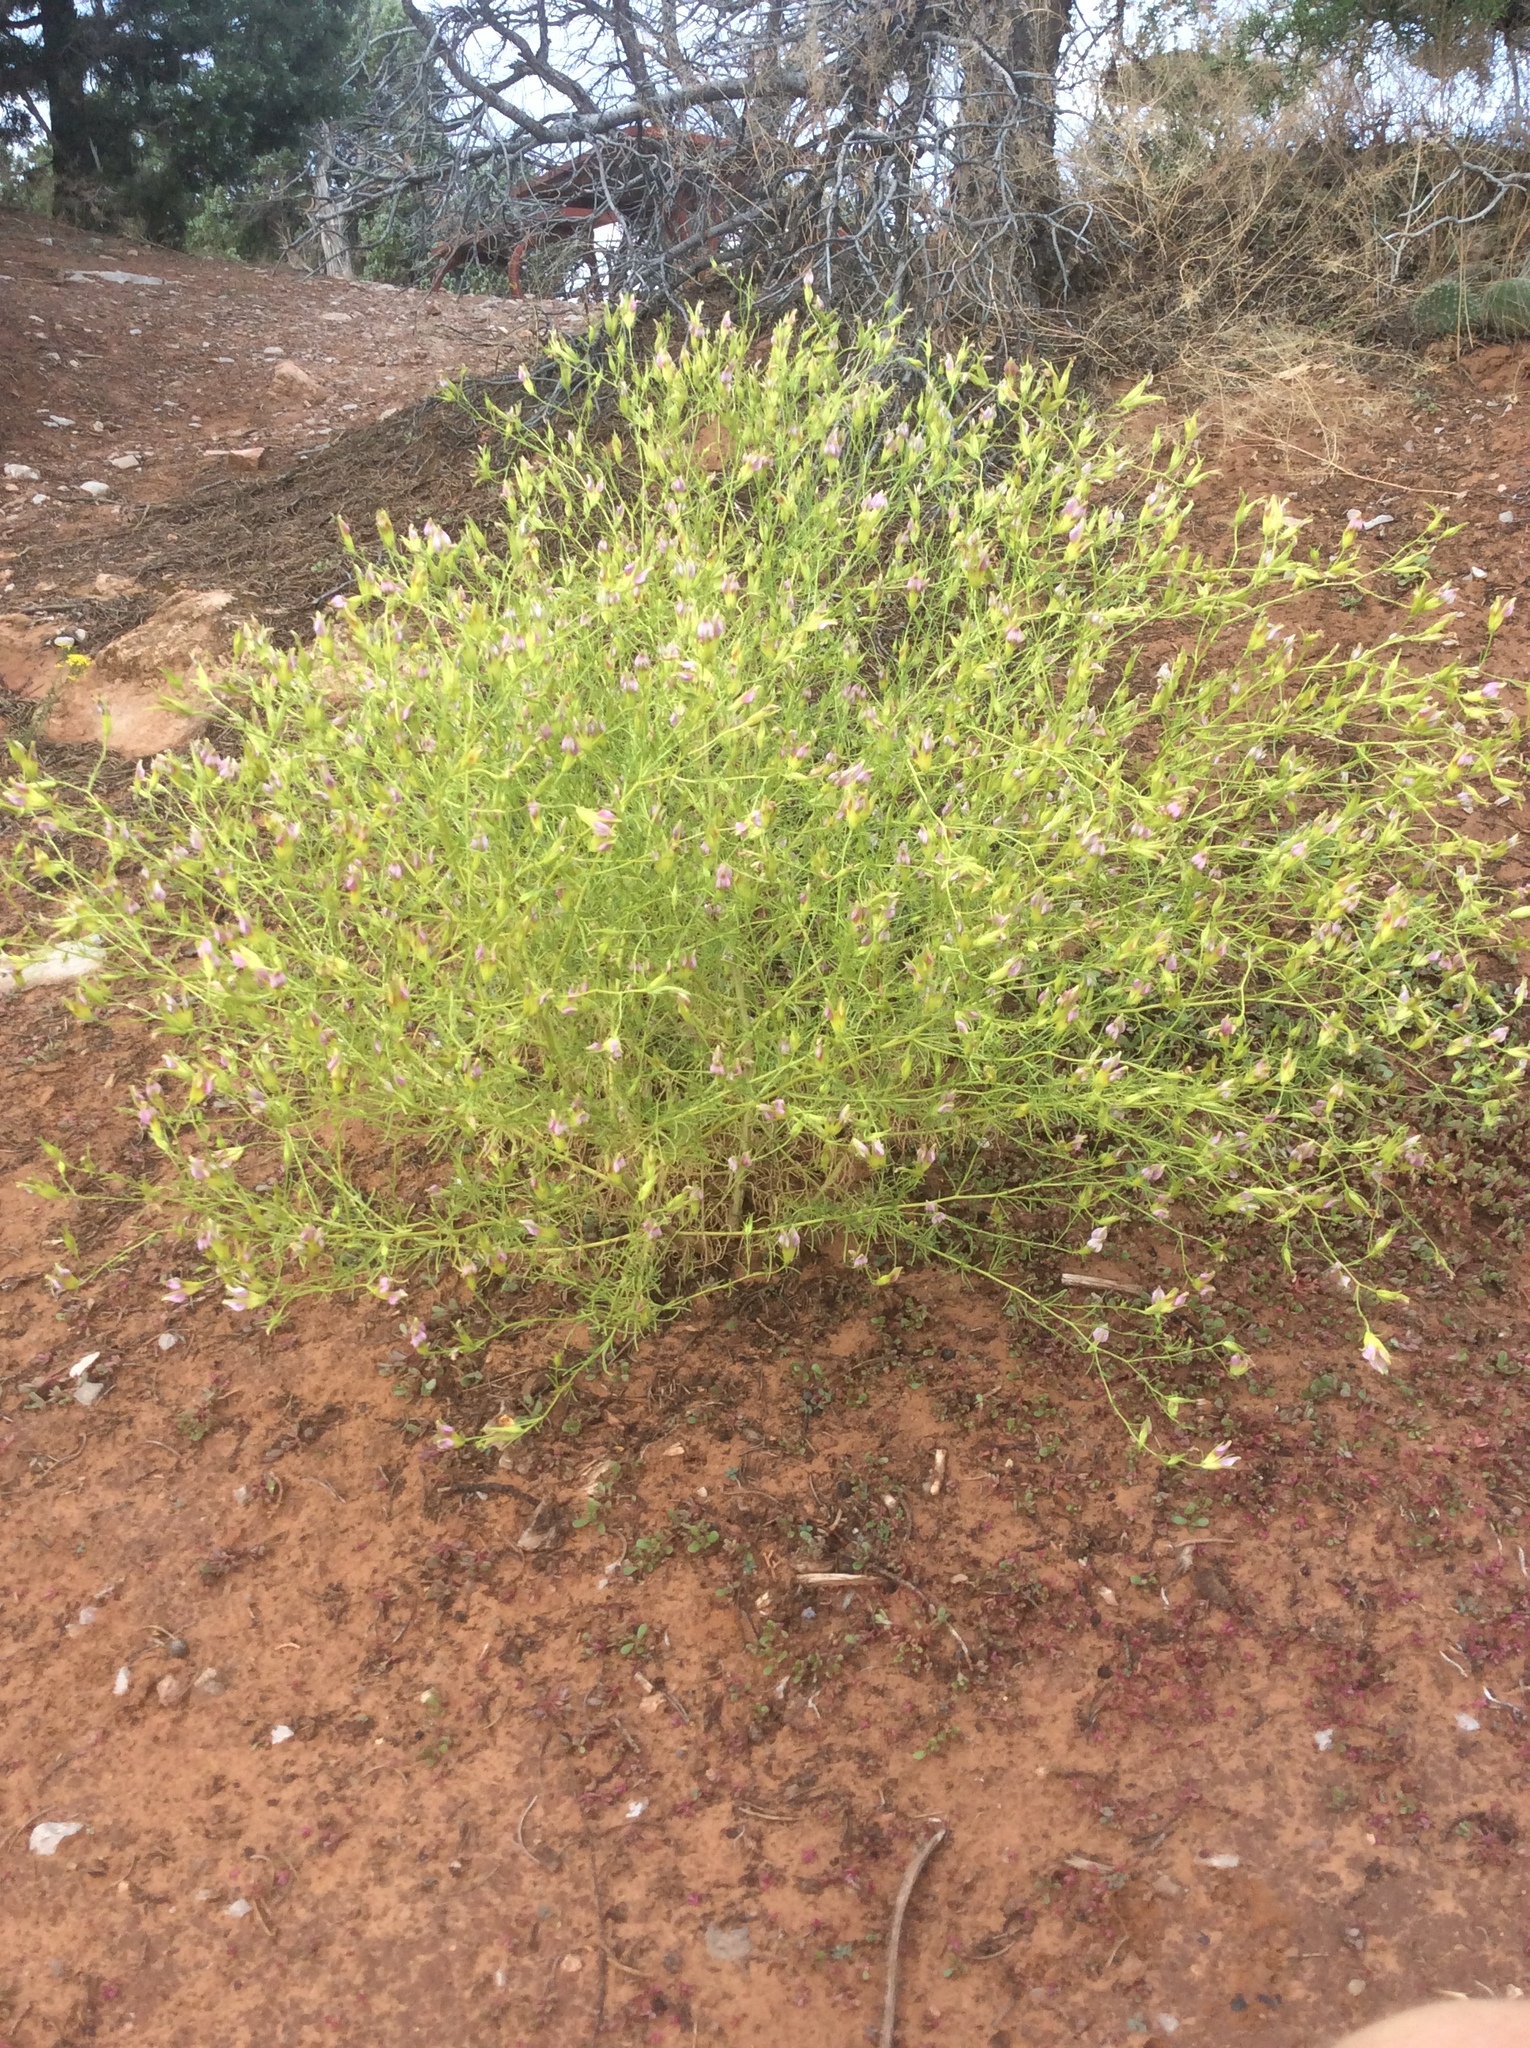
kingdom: Plantae
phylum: Tracheophyta
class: Magnoliopsida
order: Lamiales
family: Orobanchaceae
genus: Cordylanthus
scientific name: Cordylanthus wrightii
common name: Wright's birdsbeak
